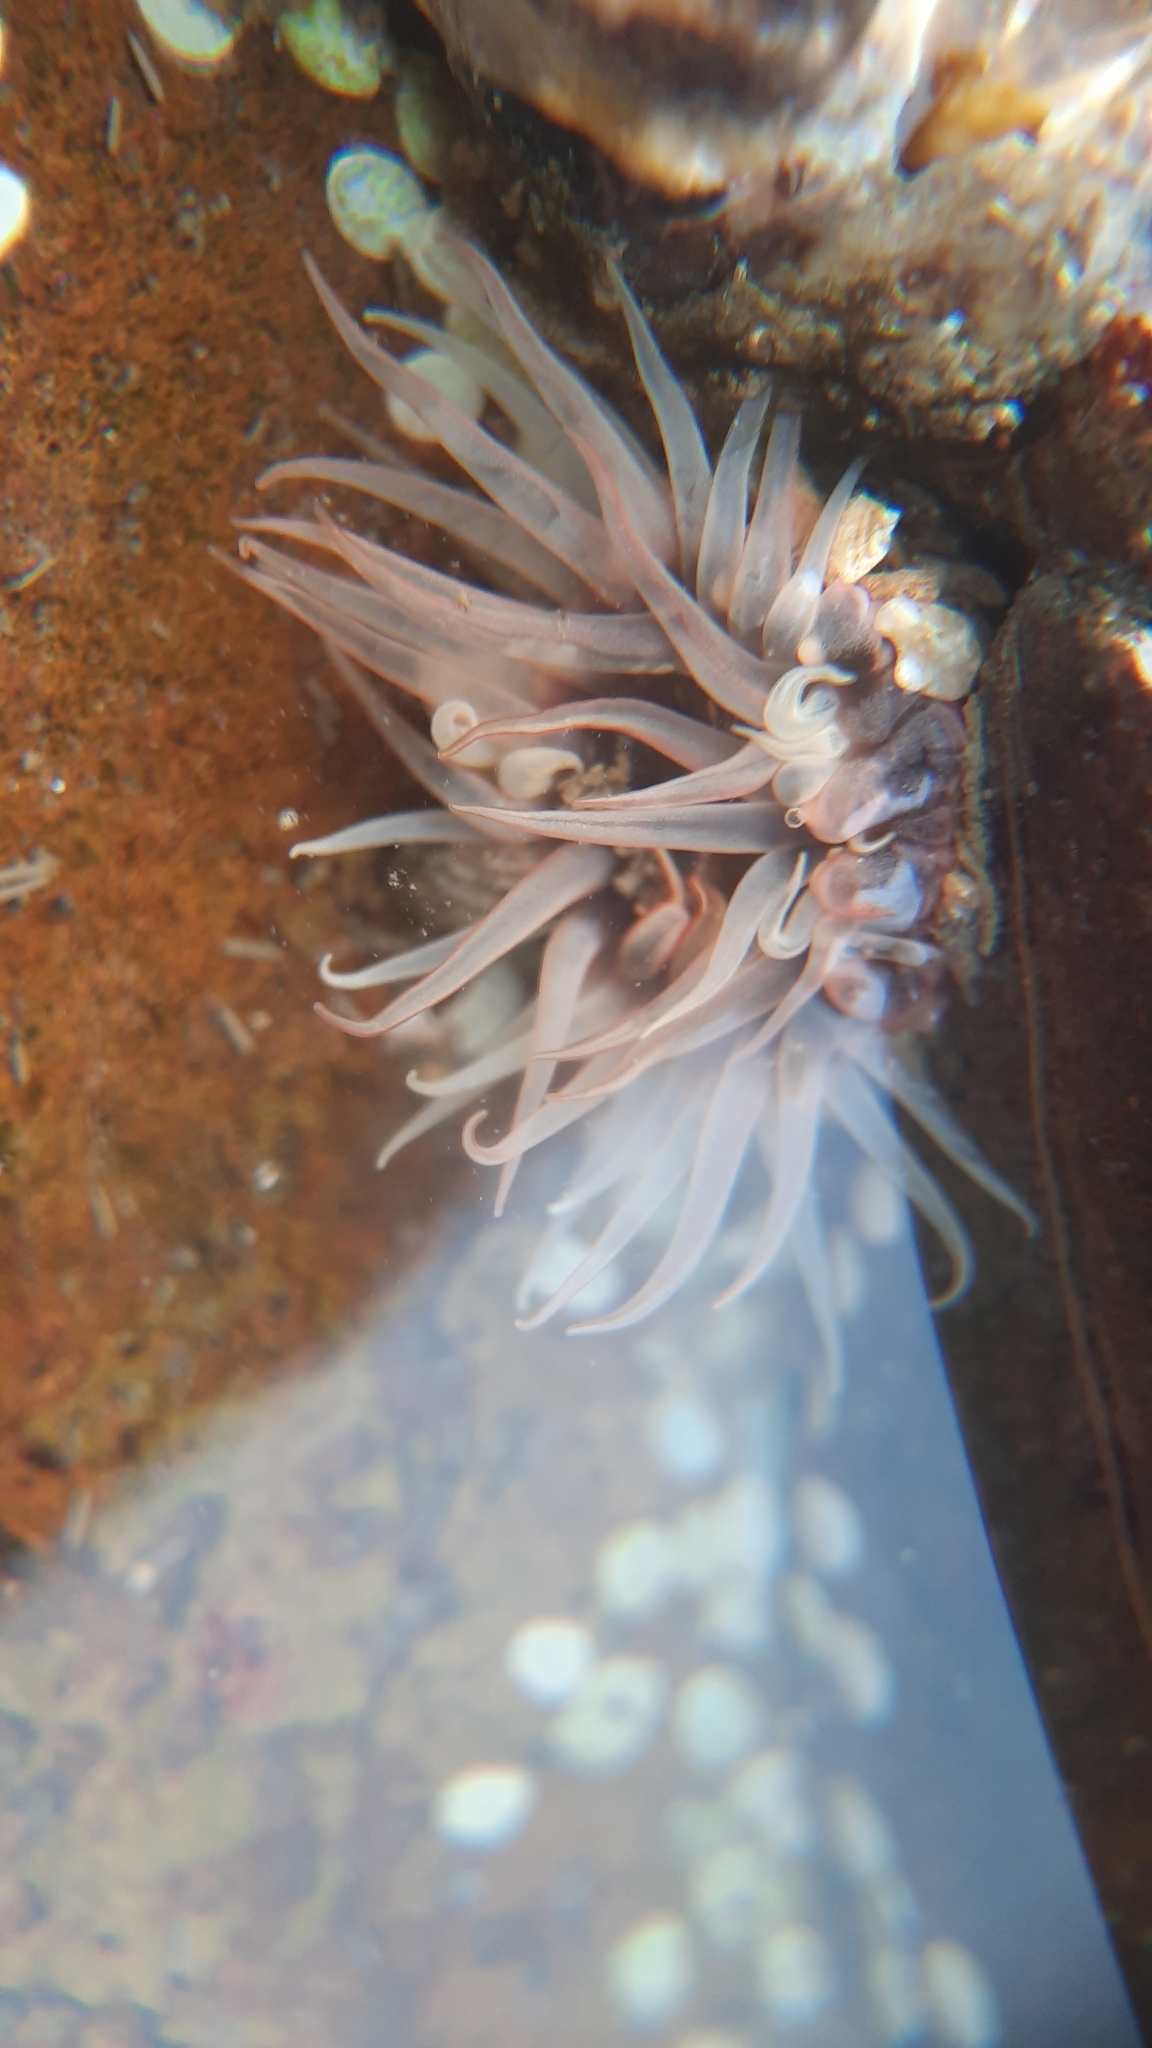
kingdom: Animalia
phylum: Cnidaria
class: Anthozoa
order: Actiniaria
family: Actiniidae
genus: Anthopleura
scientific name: Anthopleura anjunae
